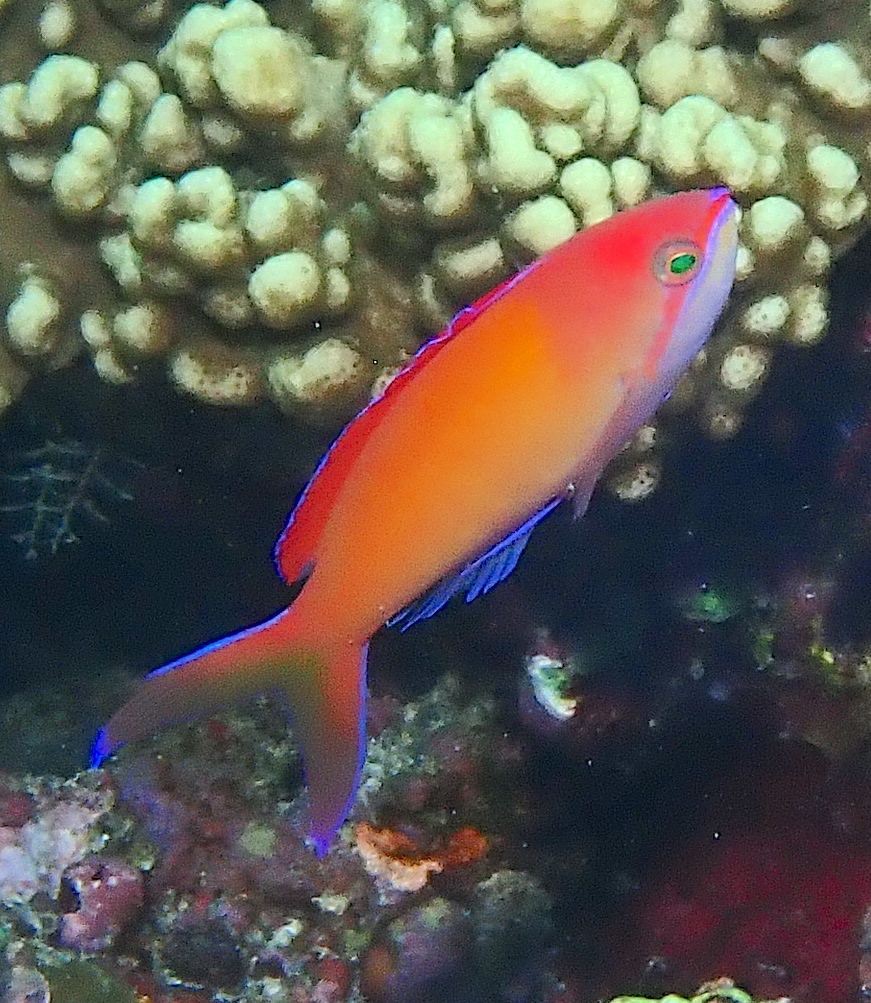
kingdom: Animalia
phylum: Chordata
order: Perciformes
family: Serranidae
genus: Nemanthias
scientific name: Nemanthias
